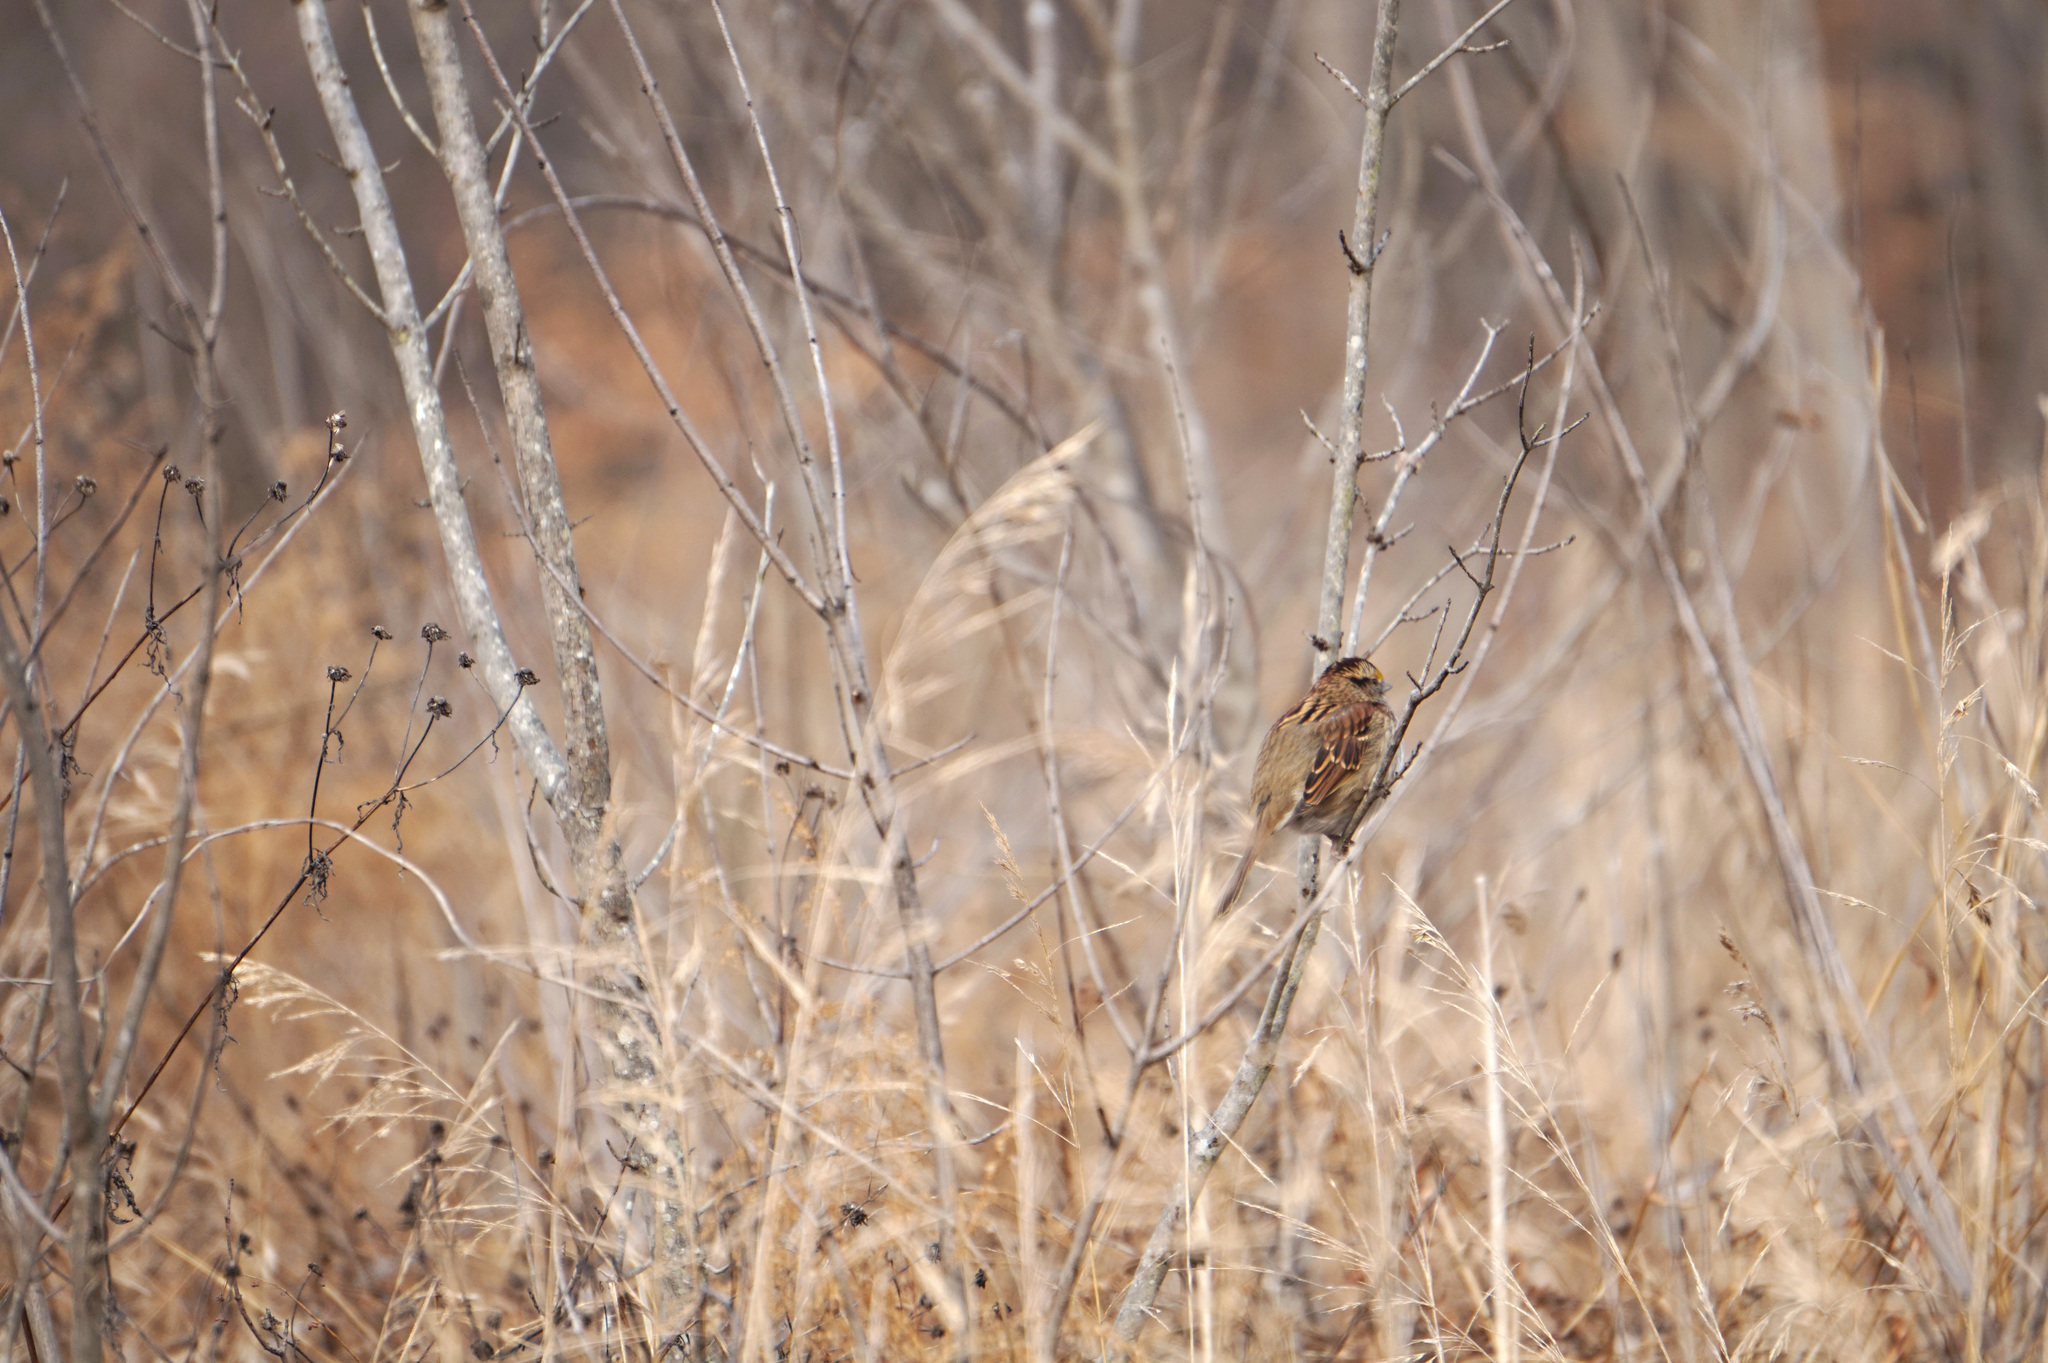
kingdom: Animalia
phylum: Chordata
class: Aves
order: Passeriformes
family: Passerellidae
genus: Zonotrichia
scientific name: Zonotrichia albicollis
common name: White-throated sparrow
